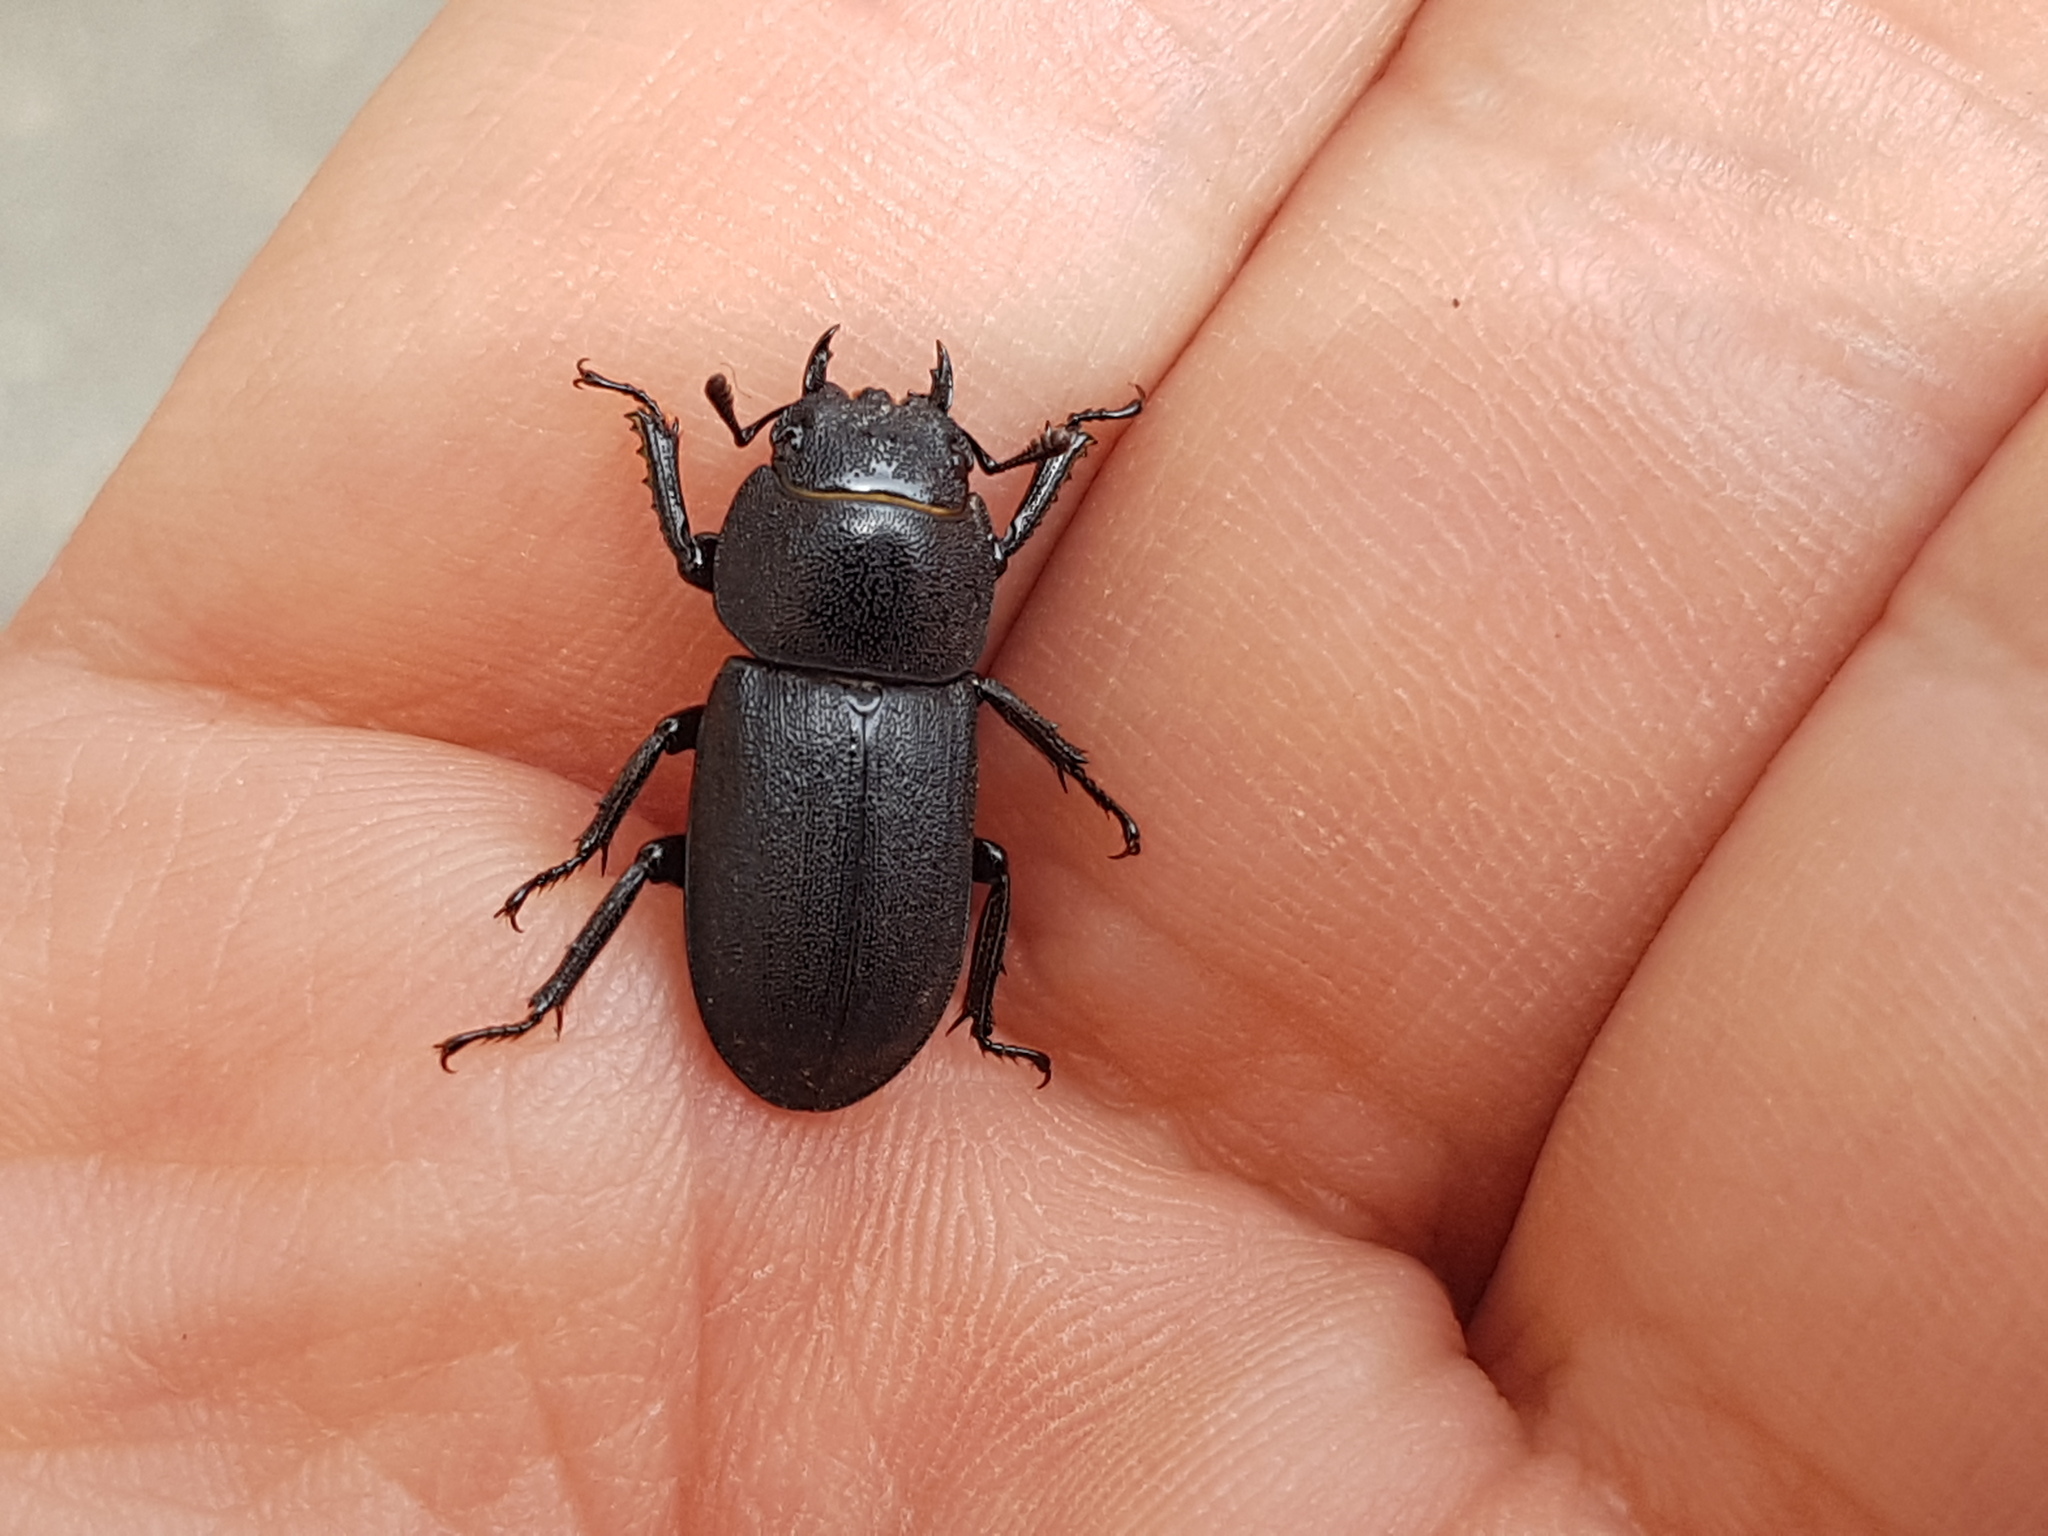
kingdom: Animalia
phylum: Arthropoda
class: Insecta
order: Coleoptera
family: Lucanidae
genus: Dorcus
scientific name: Dorcus parallelipipedus
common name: Lesser stag beetle
